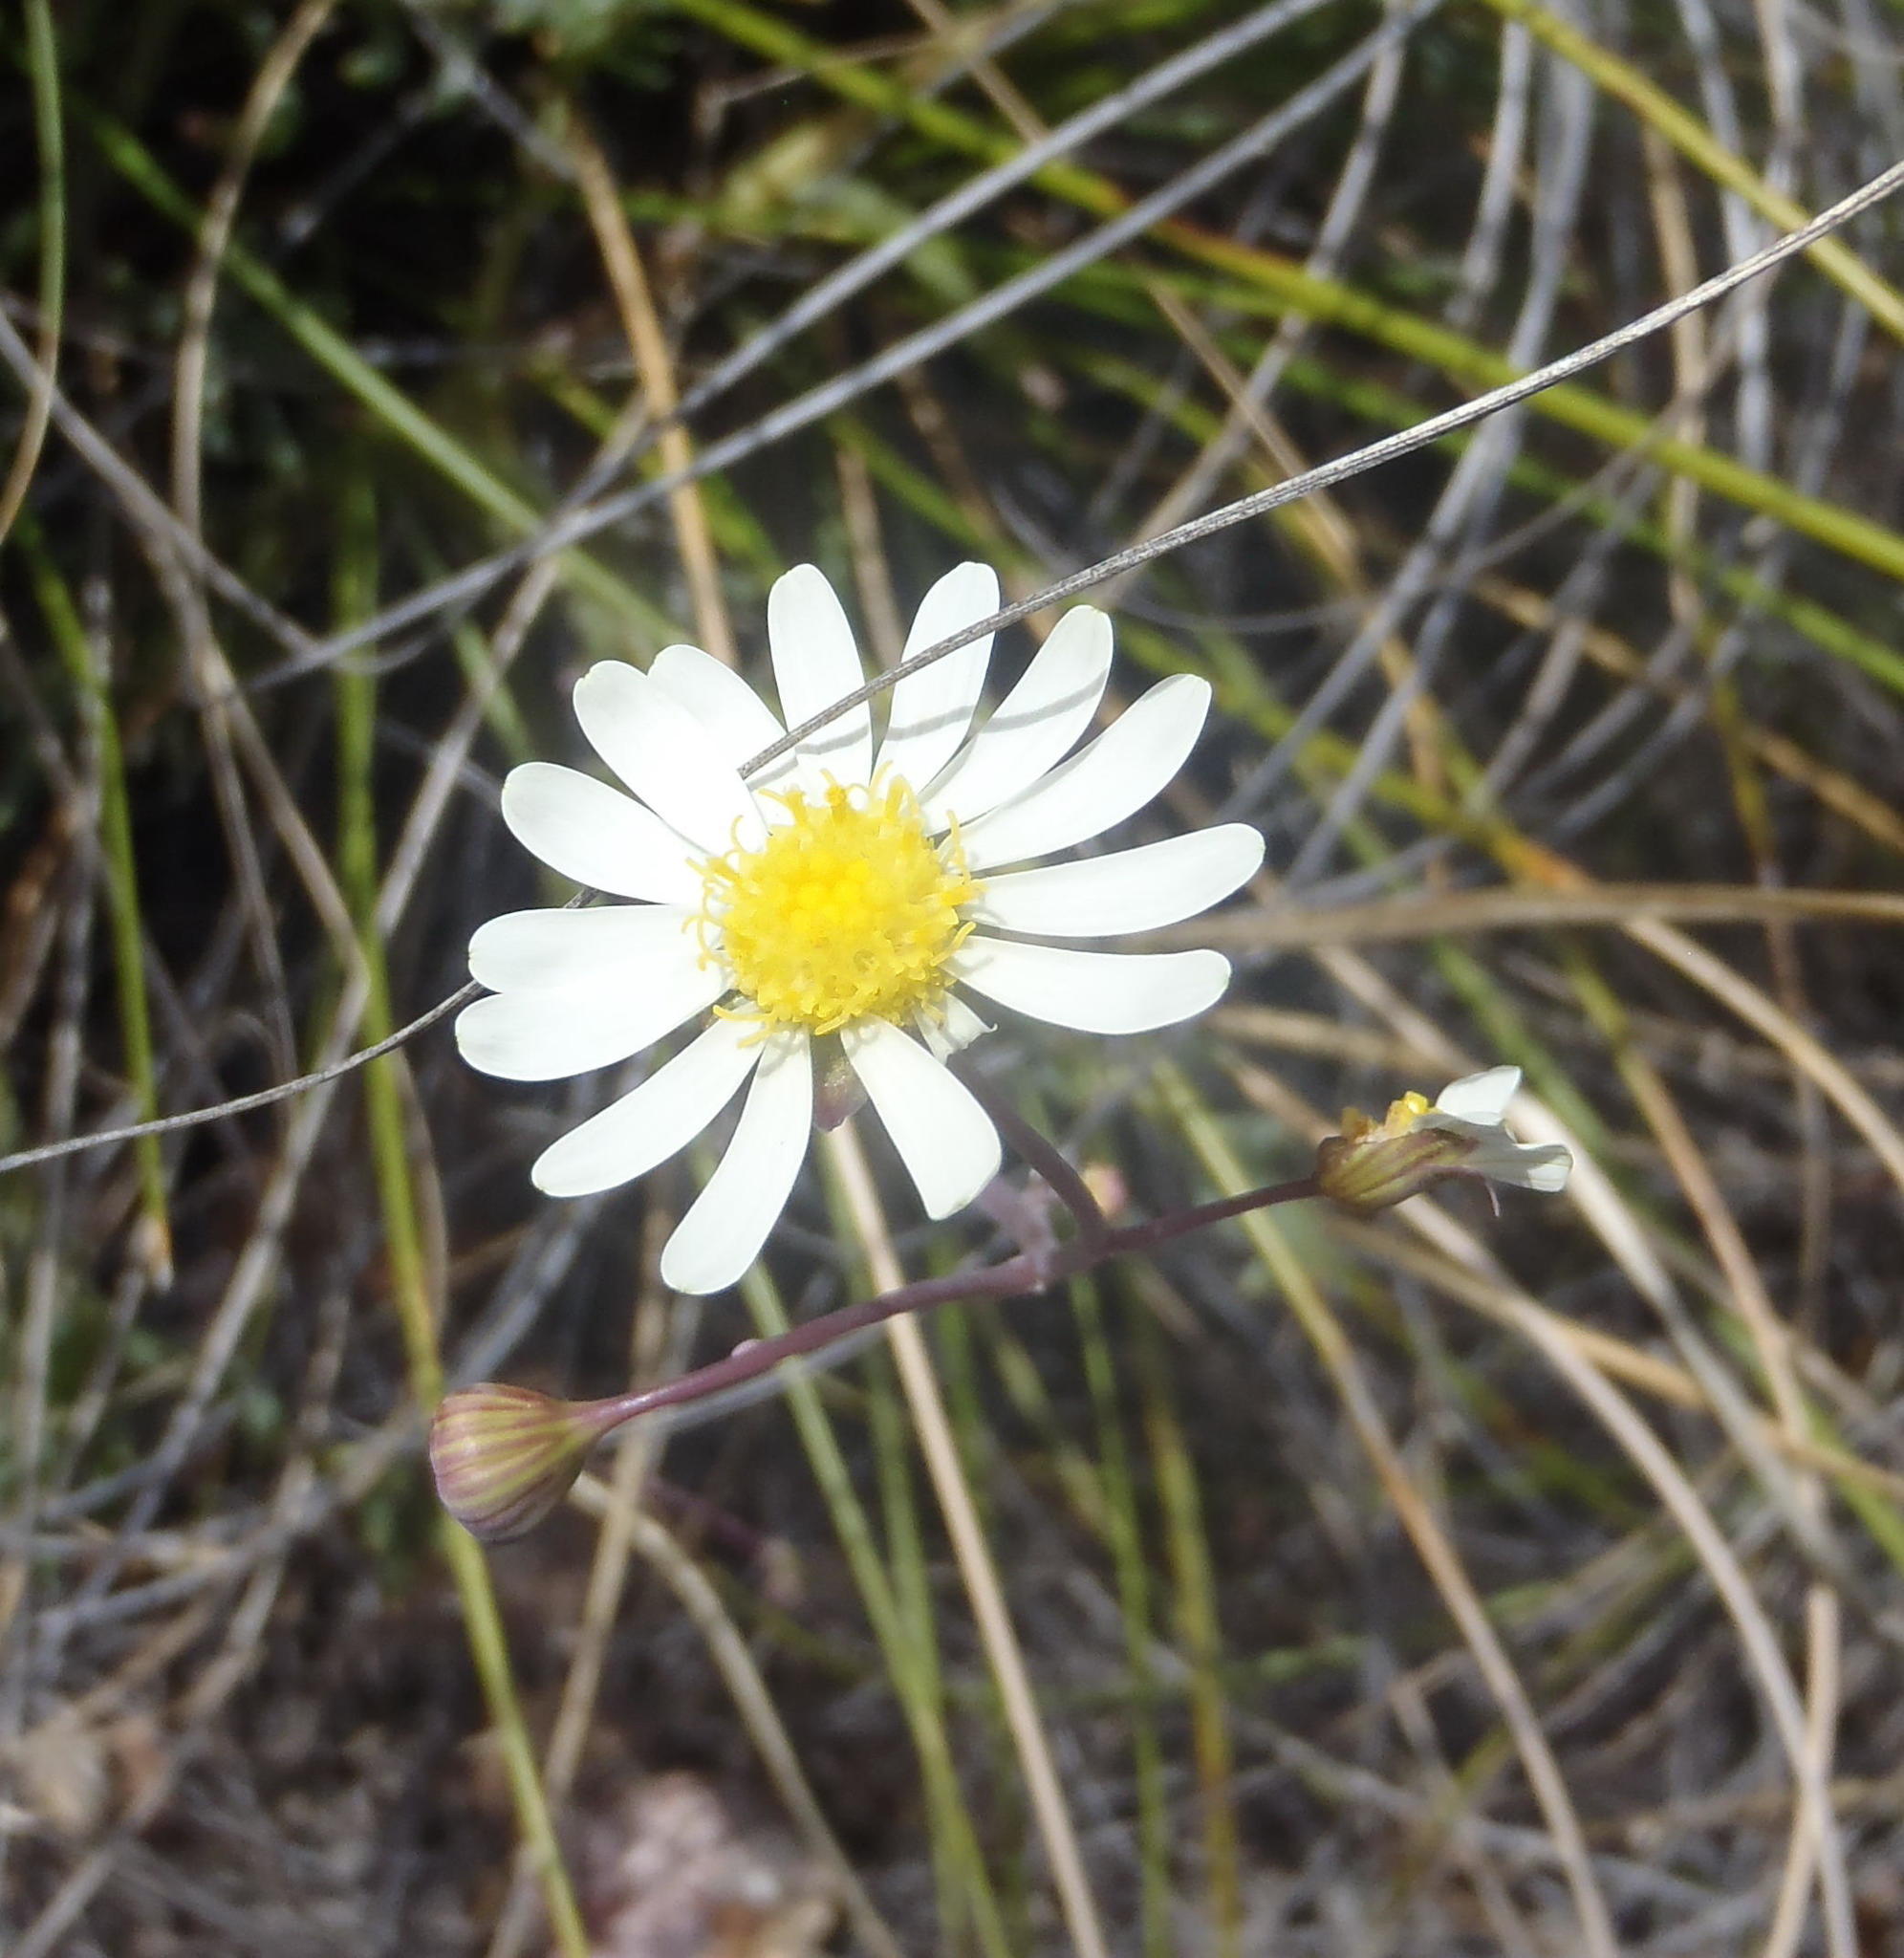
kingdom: Plantae
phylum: Tracheophyta
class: Magnoliopsida
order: Asterales
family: Asteraceae
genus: Crassothonna
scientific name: Crassothonna alba
